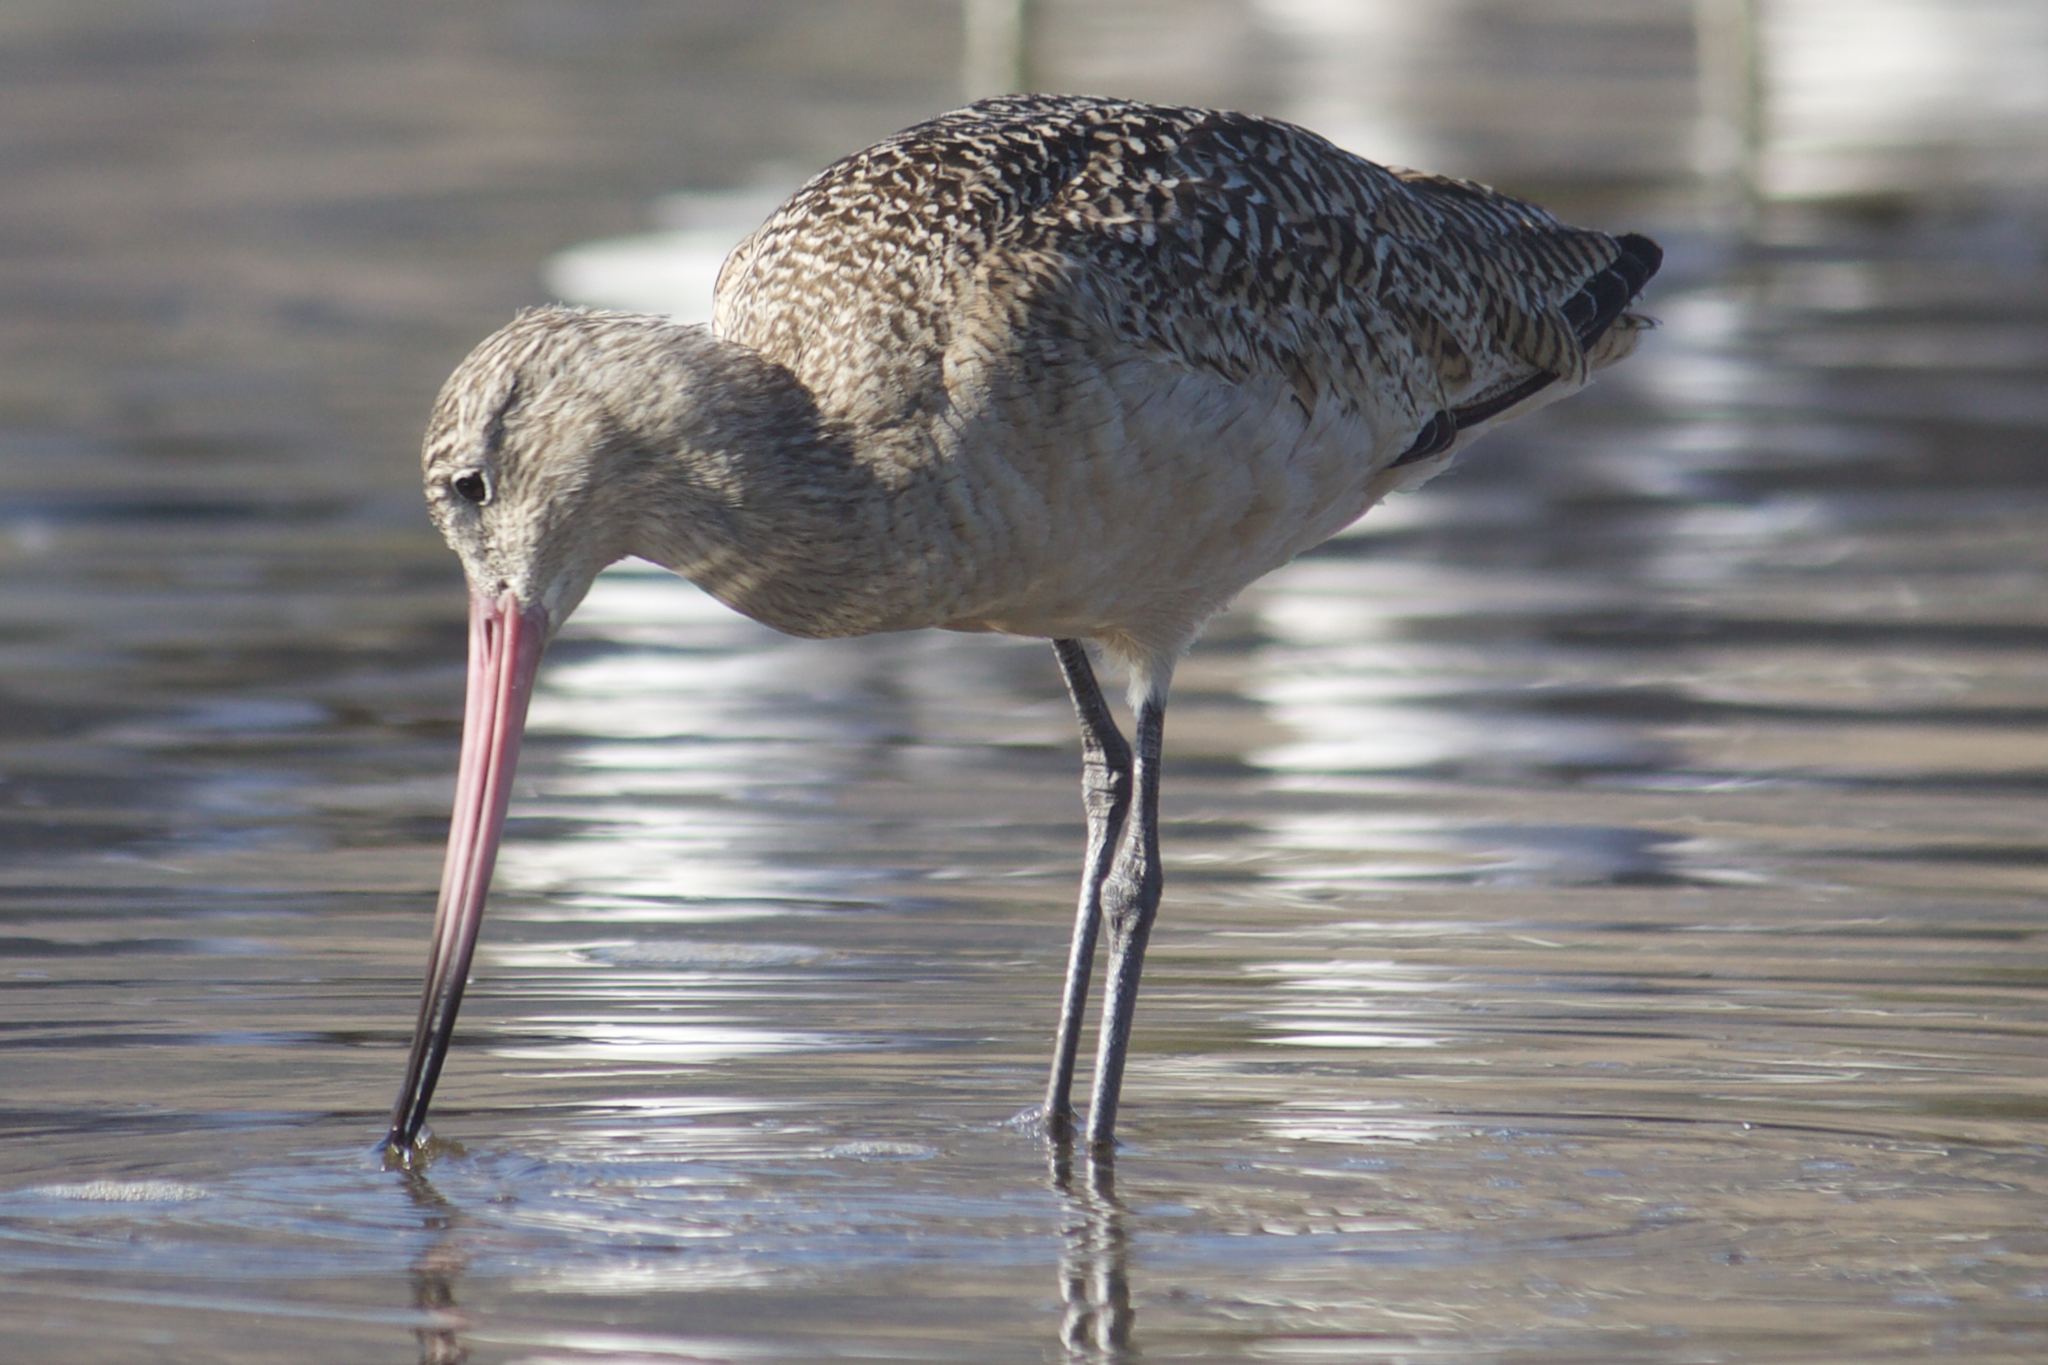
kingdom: Animalia
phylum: Chordata
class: Aves
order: Charadriiformes
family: Scolopacidae
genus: Limosa
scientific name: Limosa fedoa
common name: Marbled godwit
